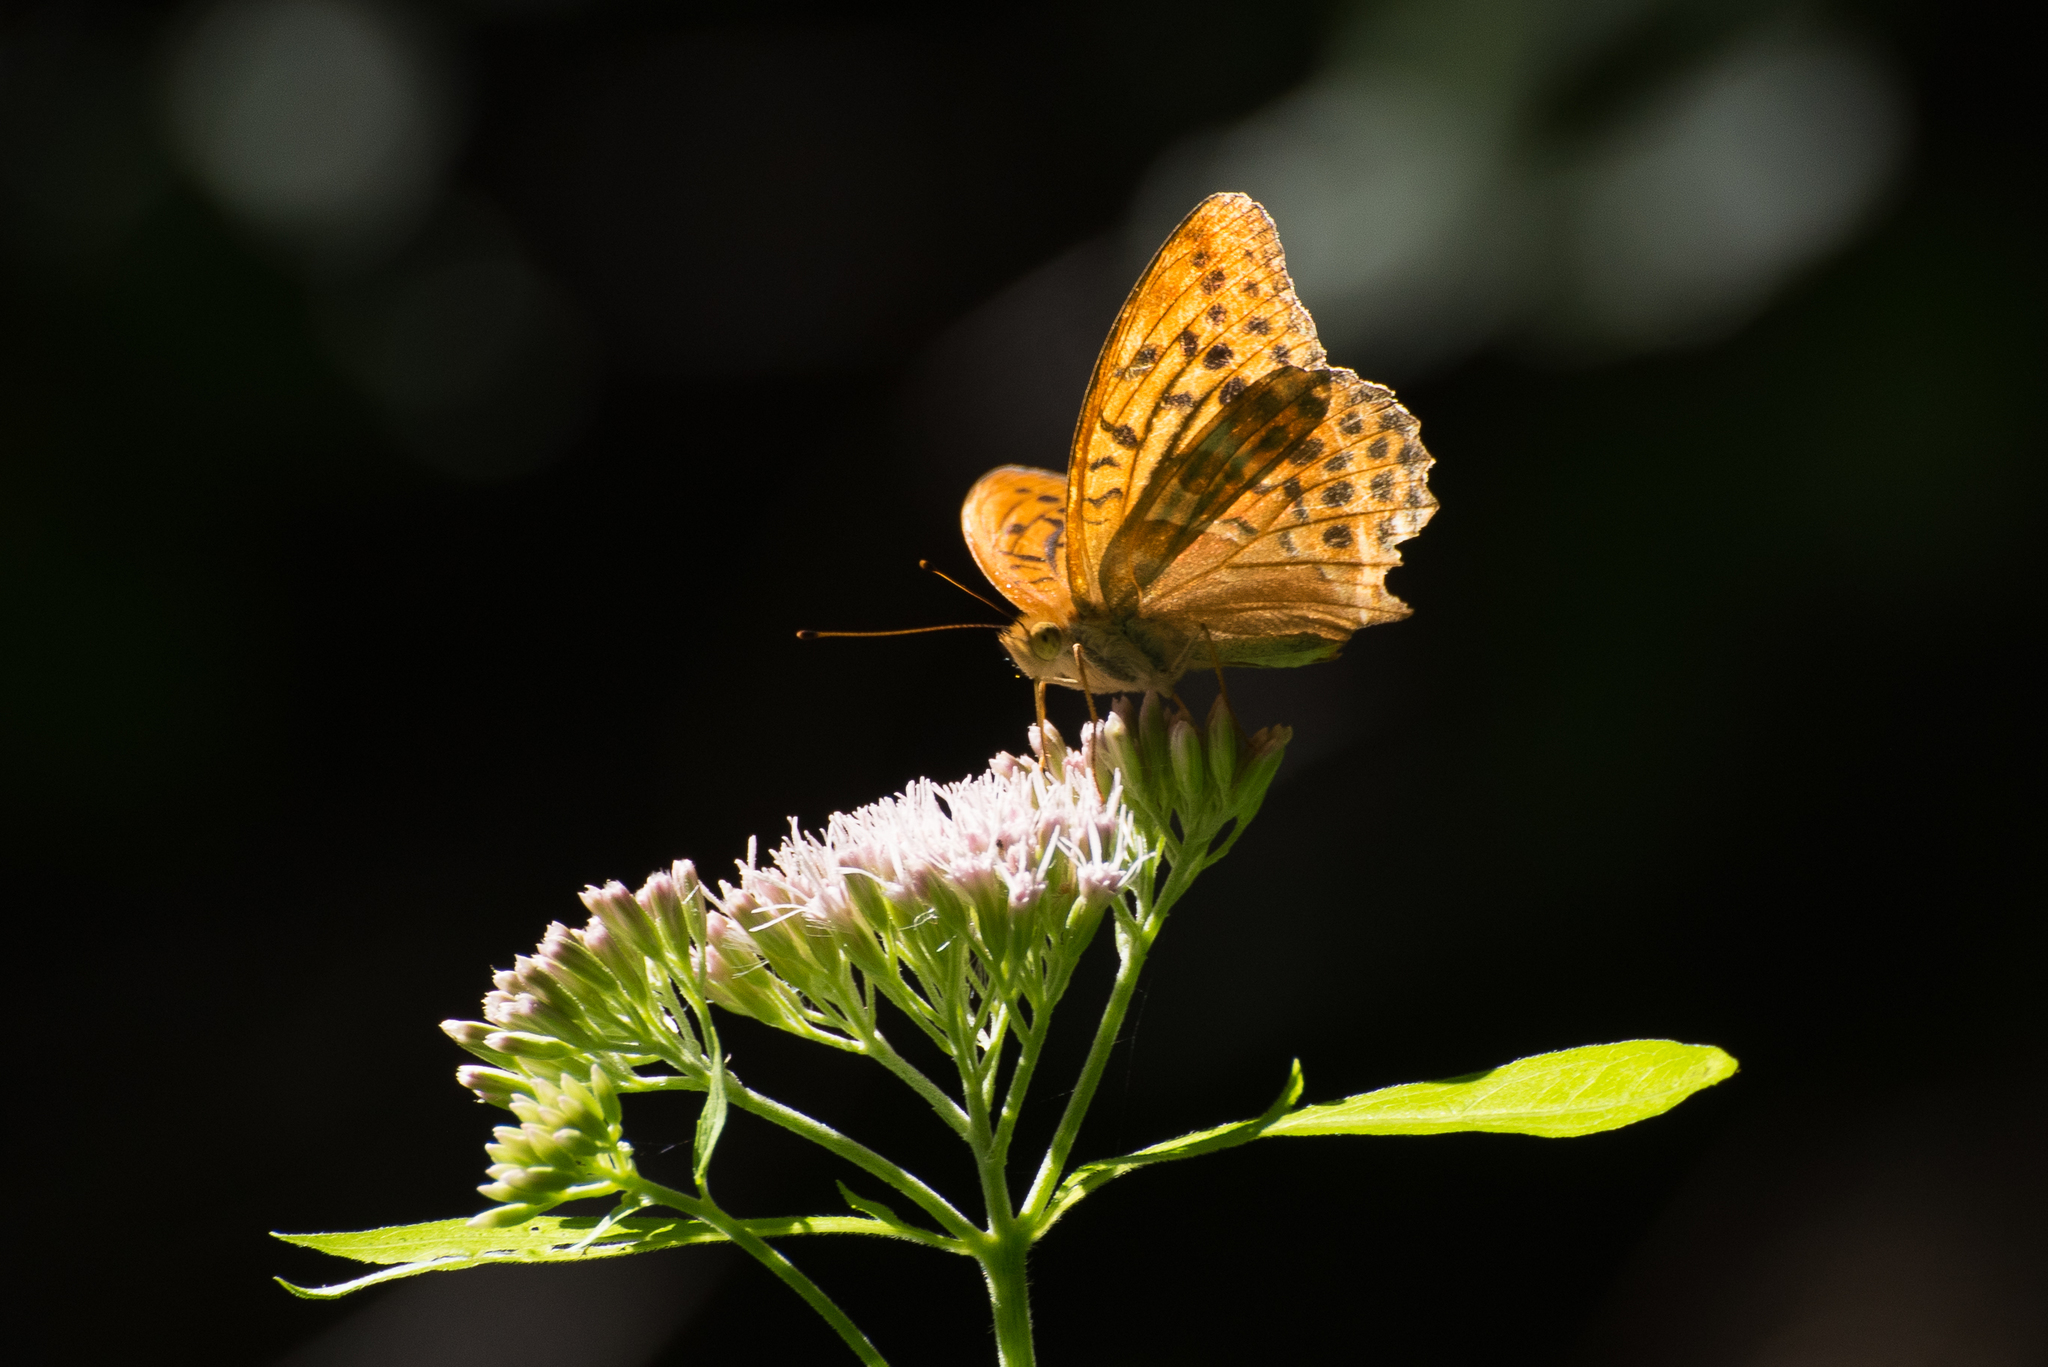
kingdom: Animalia
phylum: Arthropoda
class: Insecta
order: Lepidoptera
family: Nymphalidae
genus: Argynnis
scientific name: Argynnis paphia
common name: Silver-washed fritillary
